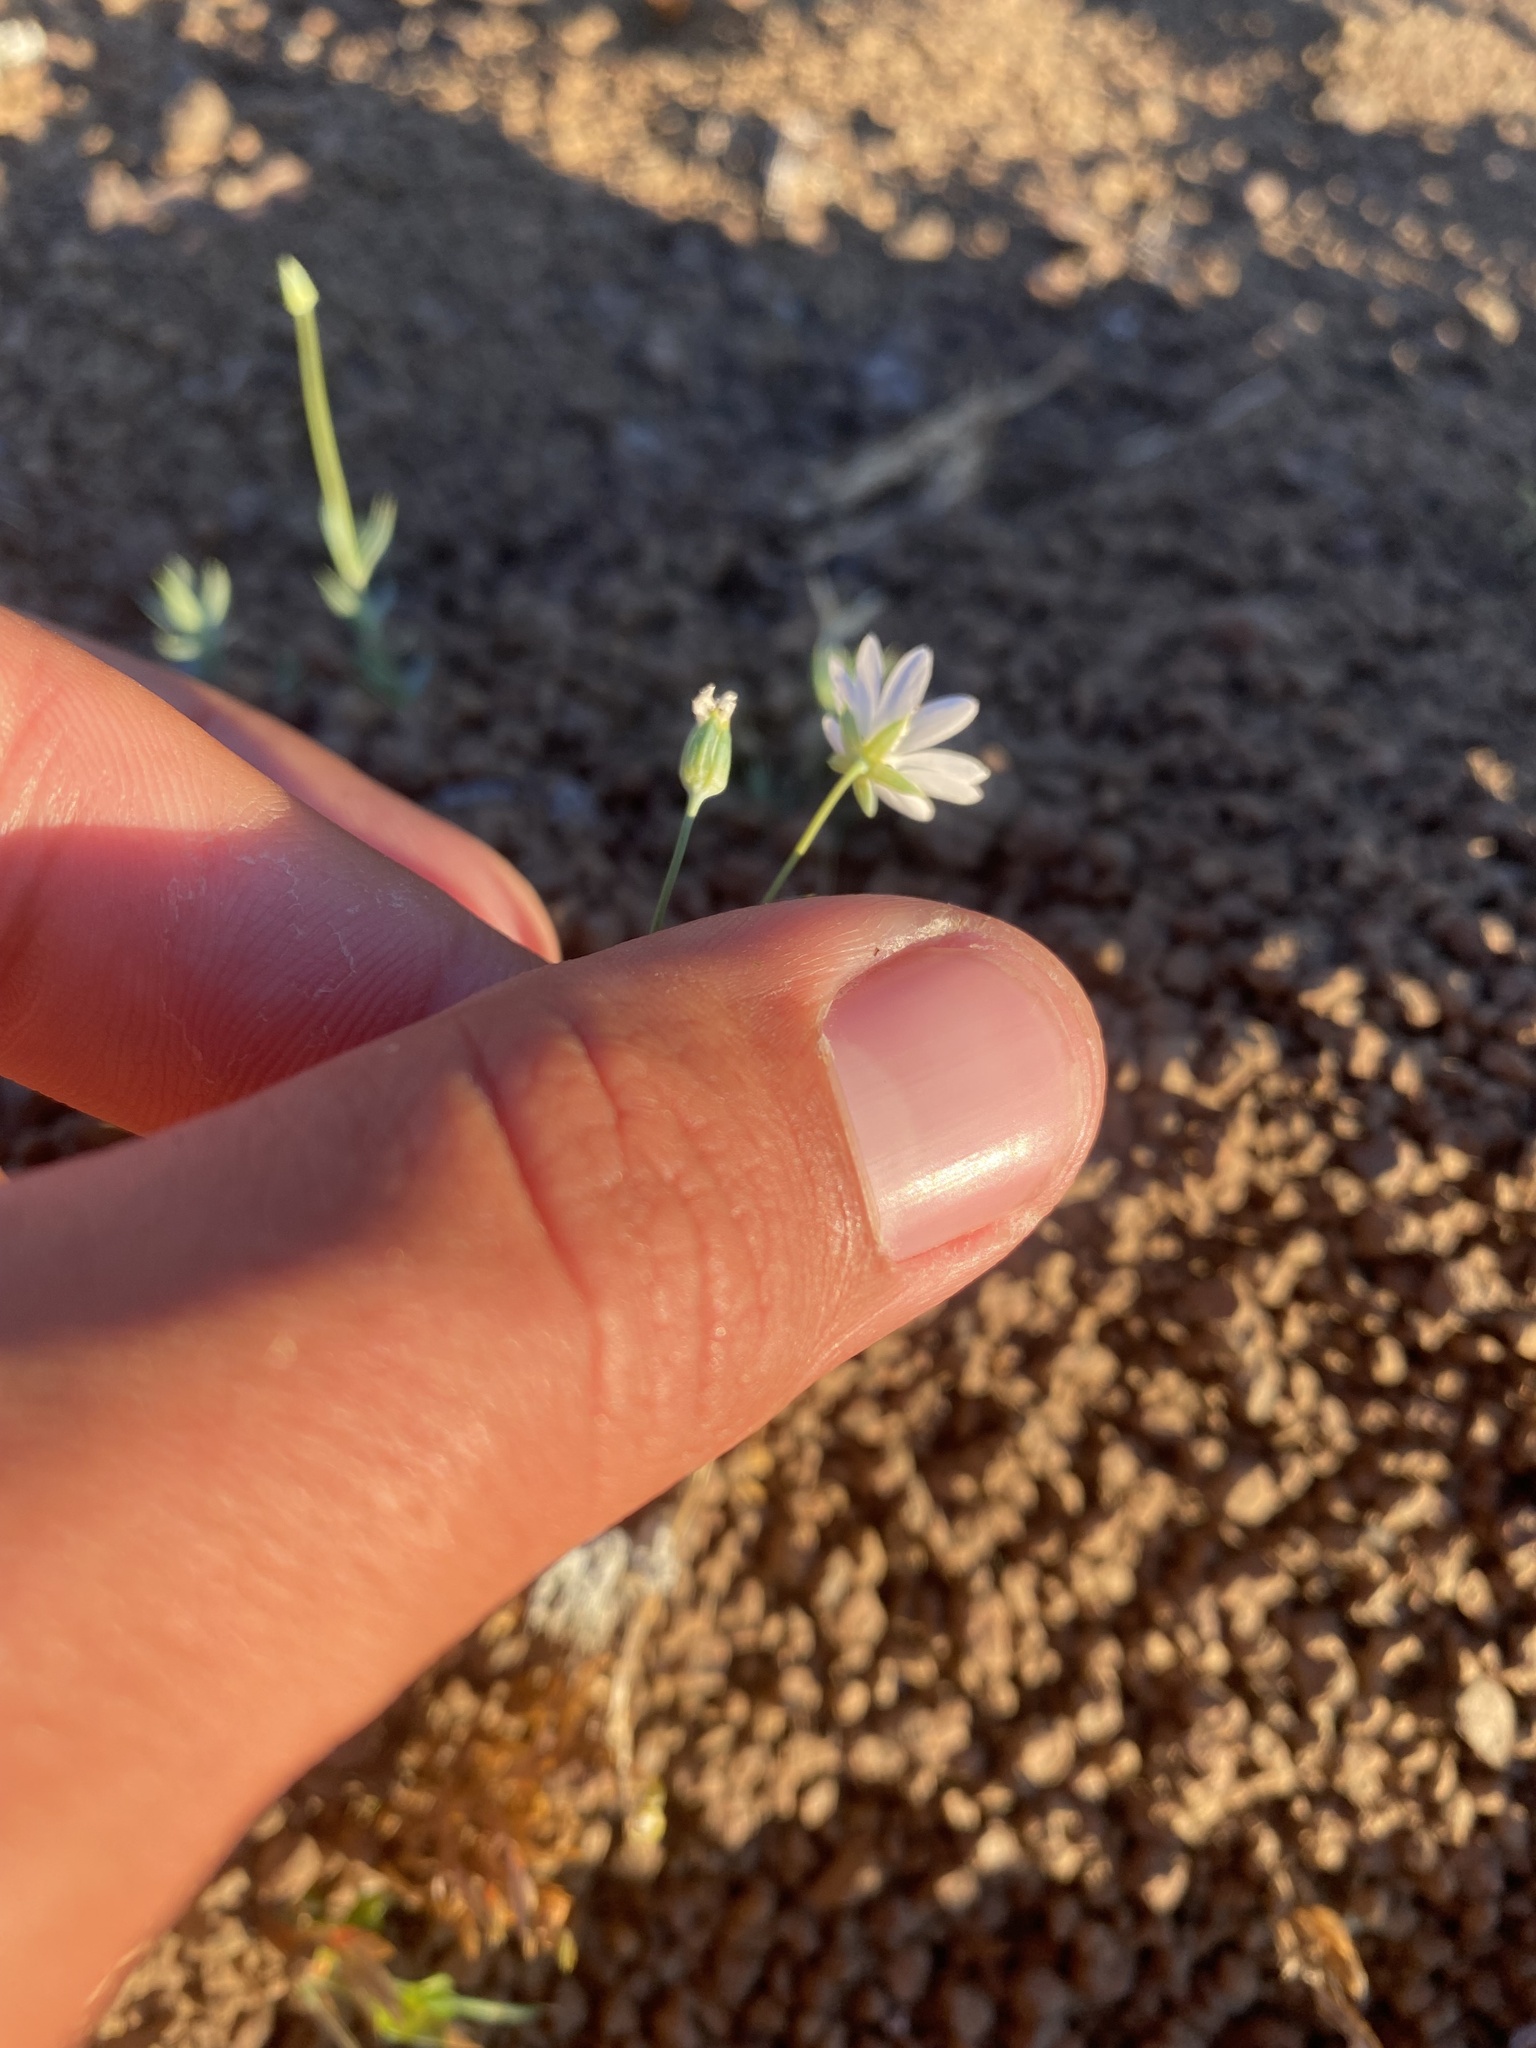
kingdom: Plantae
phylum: Tracheophyta
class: Magnoliopsida
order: Caryophyllales
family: Caryophyllaceae
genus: Stellaria
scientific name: Stellaria fischeriana
